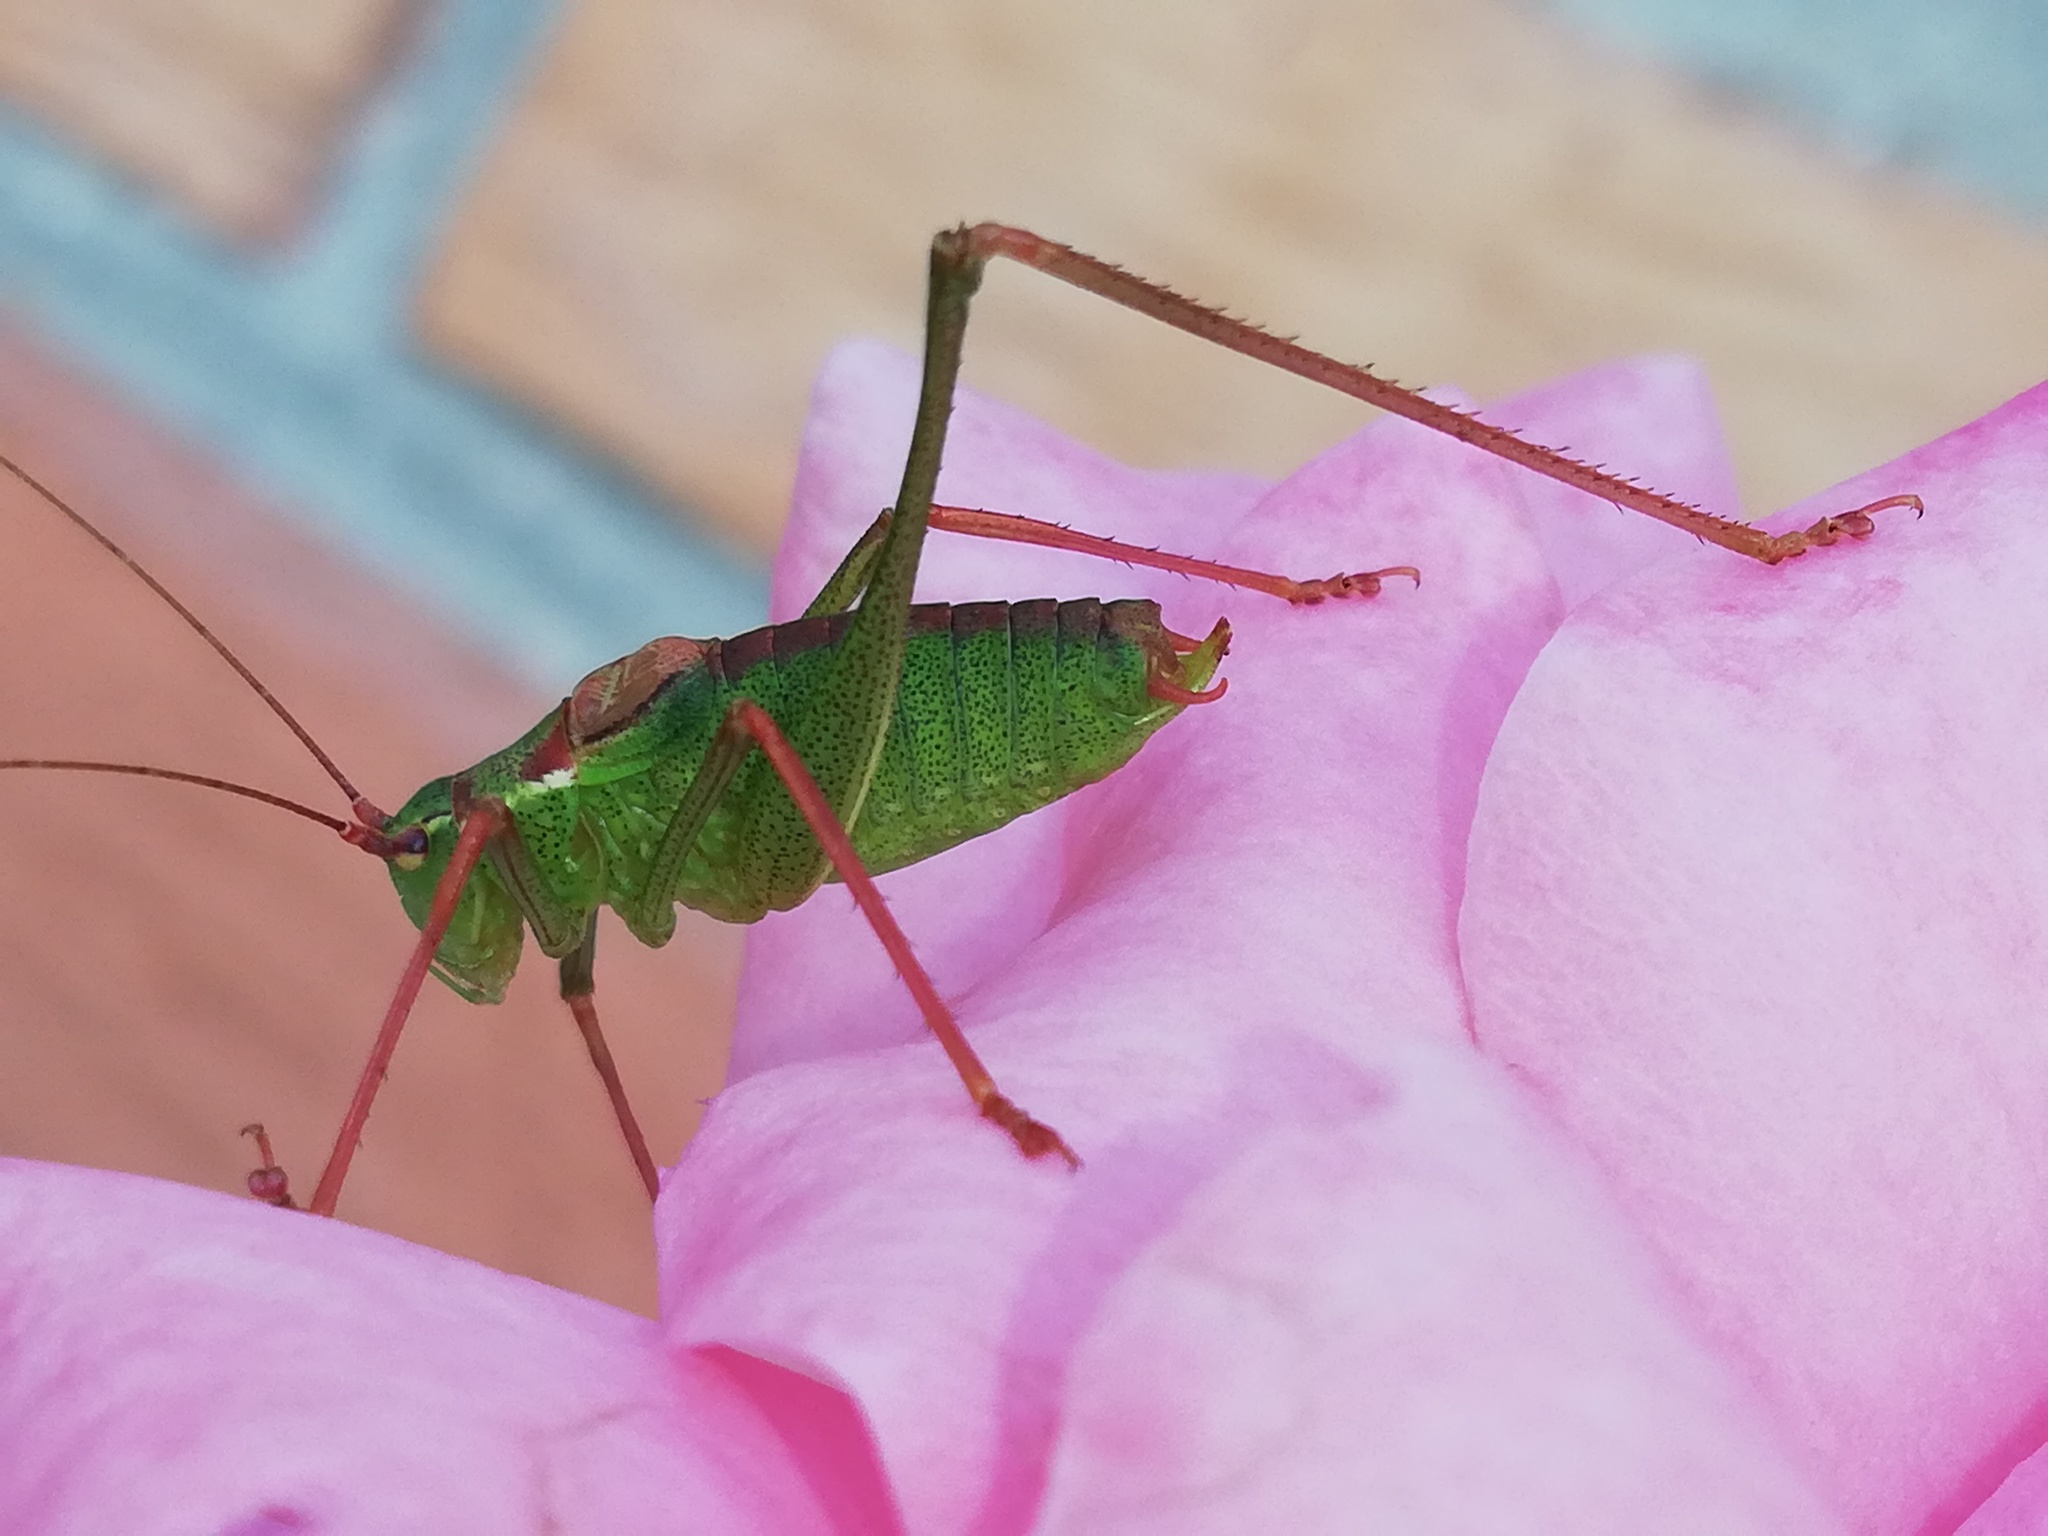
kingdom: Animalia
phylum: Arthropoda
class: Insecta
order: Orthoptera
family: Tettigoniidae
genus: Leptophyes
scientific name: Leptophyes punctatissima
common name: Speckled bush-cricket
